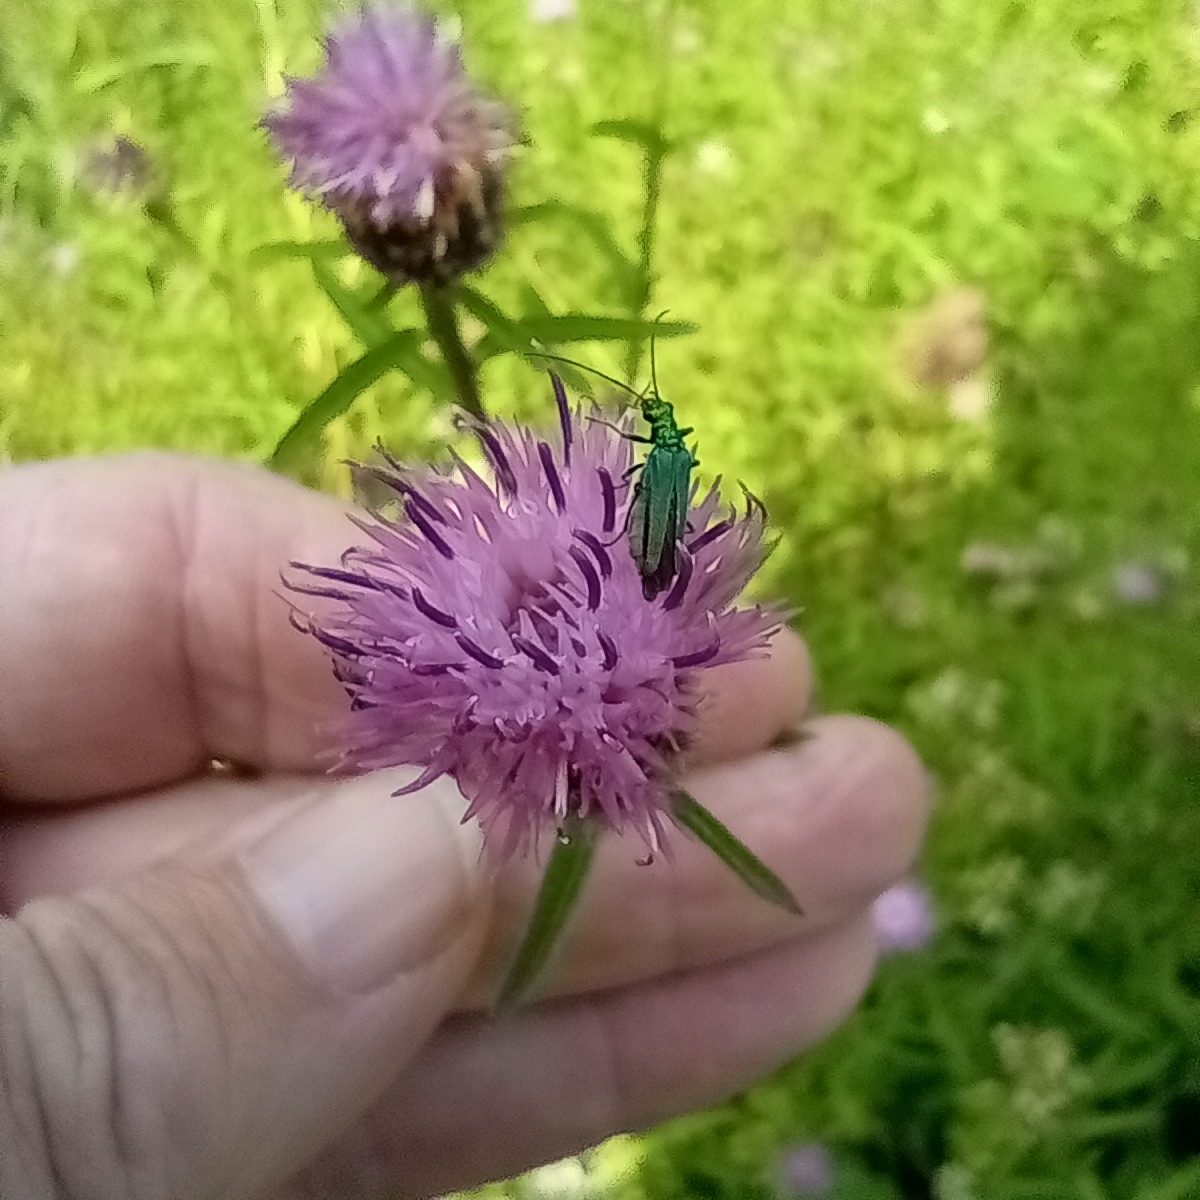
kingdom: Animalia
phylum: Arthropoda
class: Insecta
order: Coleoptera
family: Oedemeridae
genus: Oedemera
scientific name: Oedemera nobilis
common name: Swollen-thighed beetle
